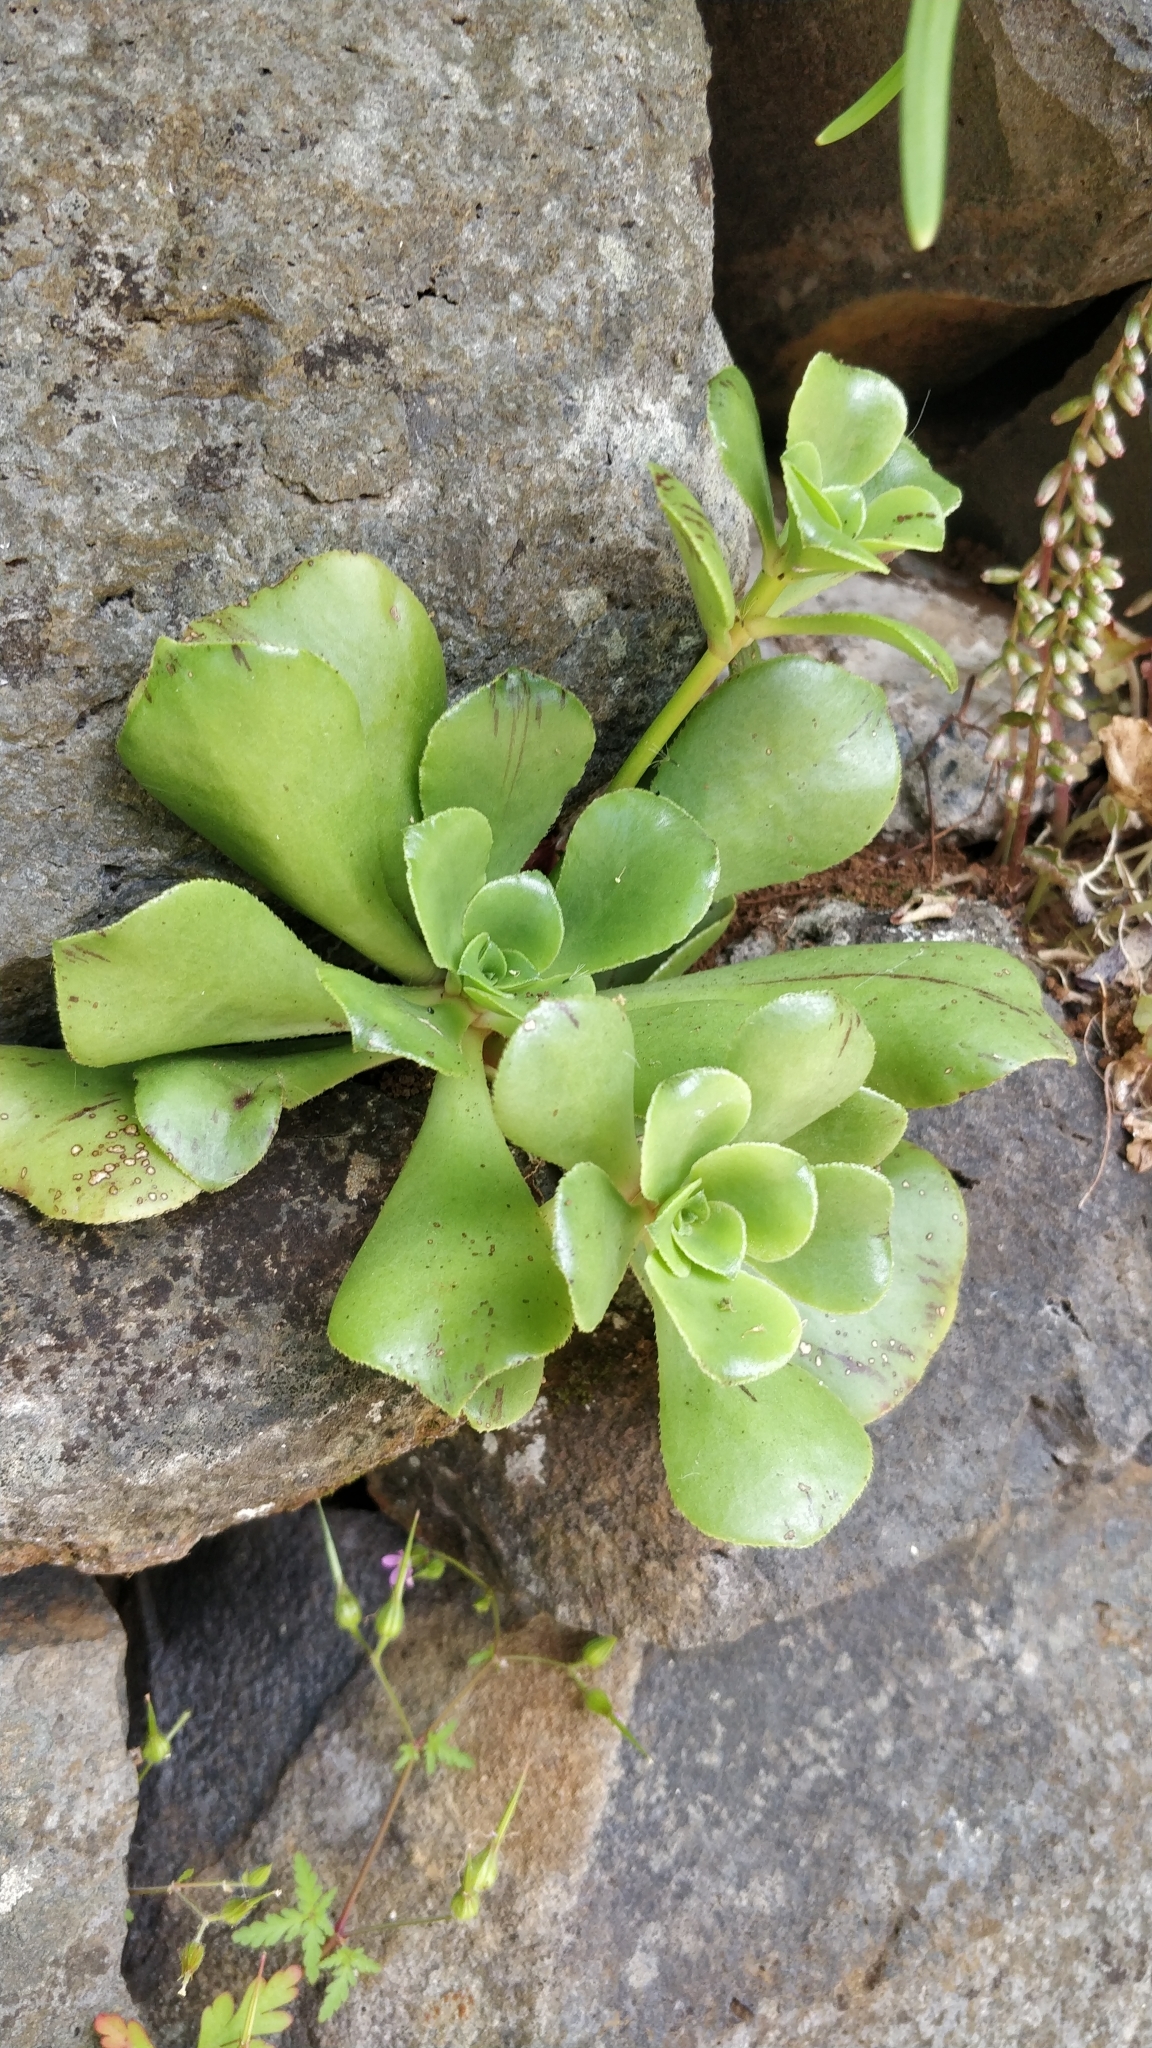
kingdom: Plantae
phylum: Tracheophyta
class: Magnoliopsida
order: Saxifragales
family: Crassulaceae
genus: Aeonium
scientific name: Aeonium glutinosum
